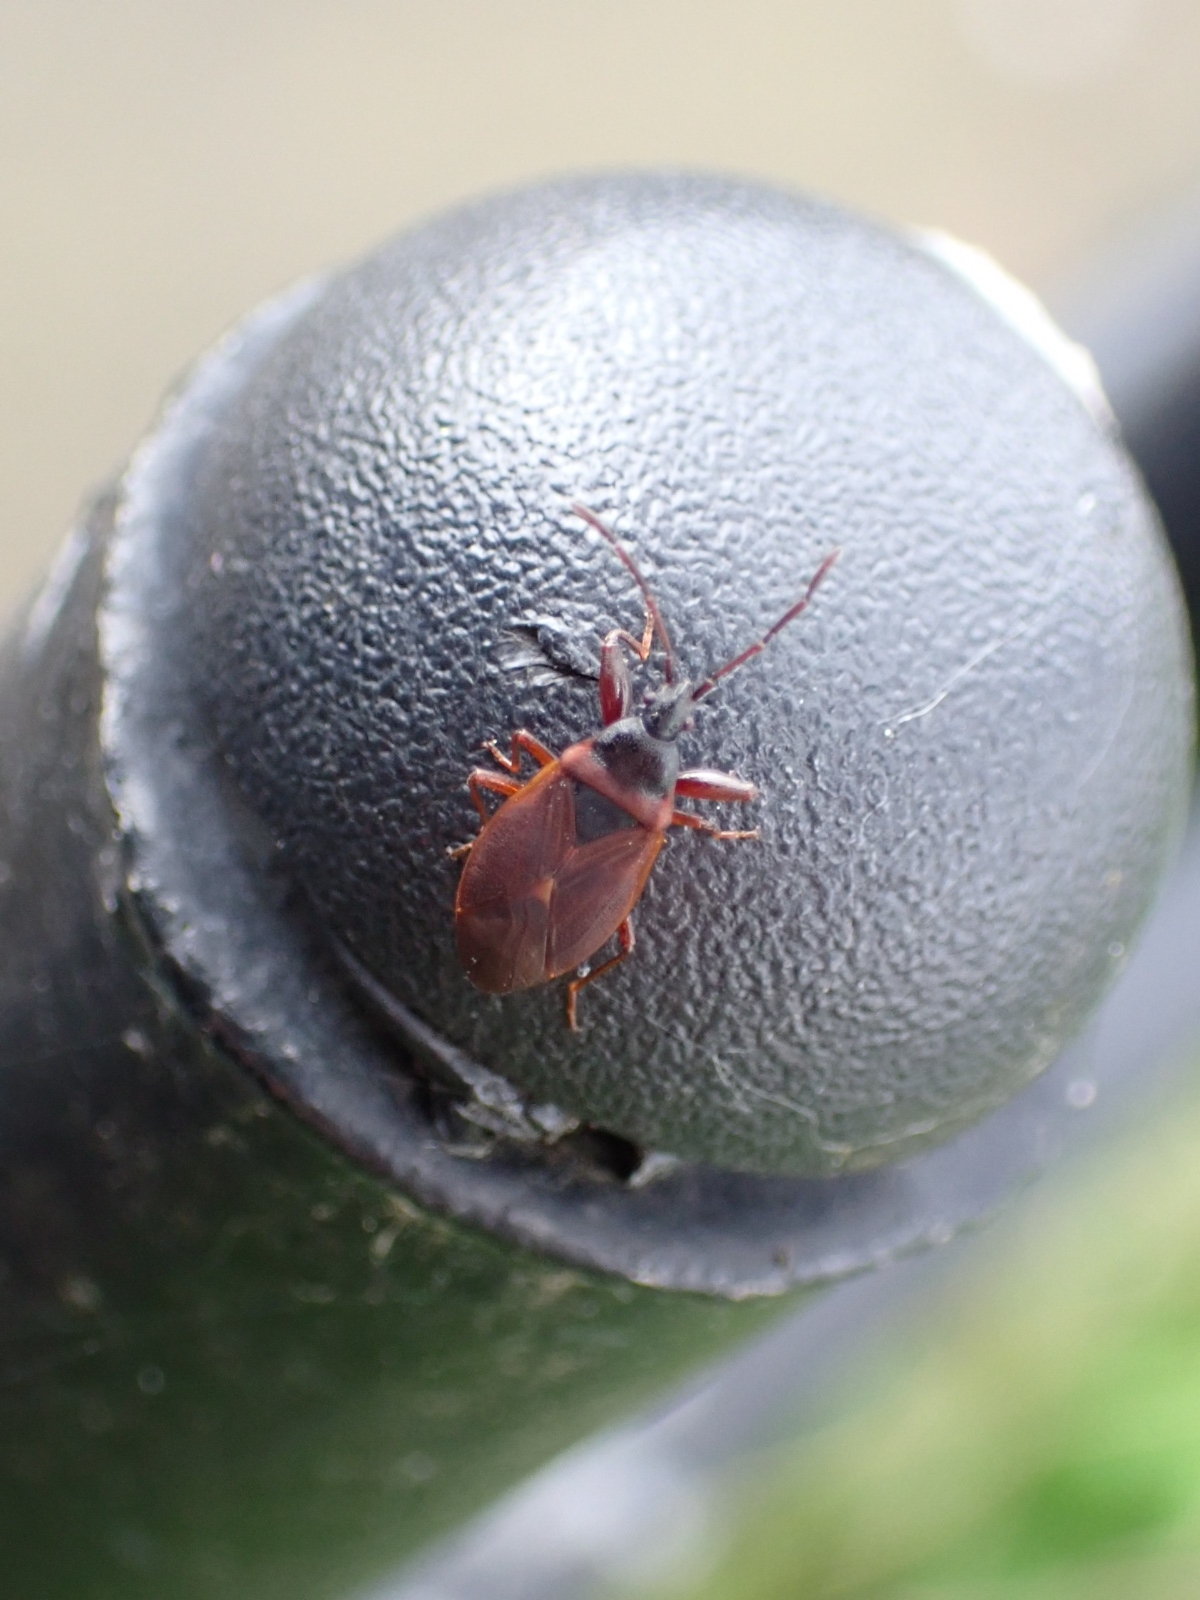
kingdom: Animalia
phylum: Arthropoda
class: Insecta
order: Hemiptera
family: Rhyparochromidae
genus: Gastrodes
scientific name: Gastrodes grossipes
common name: Pine cone bug
